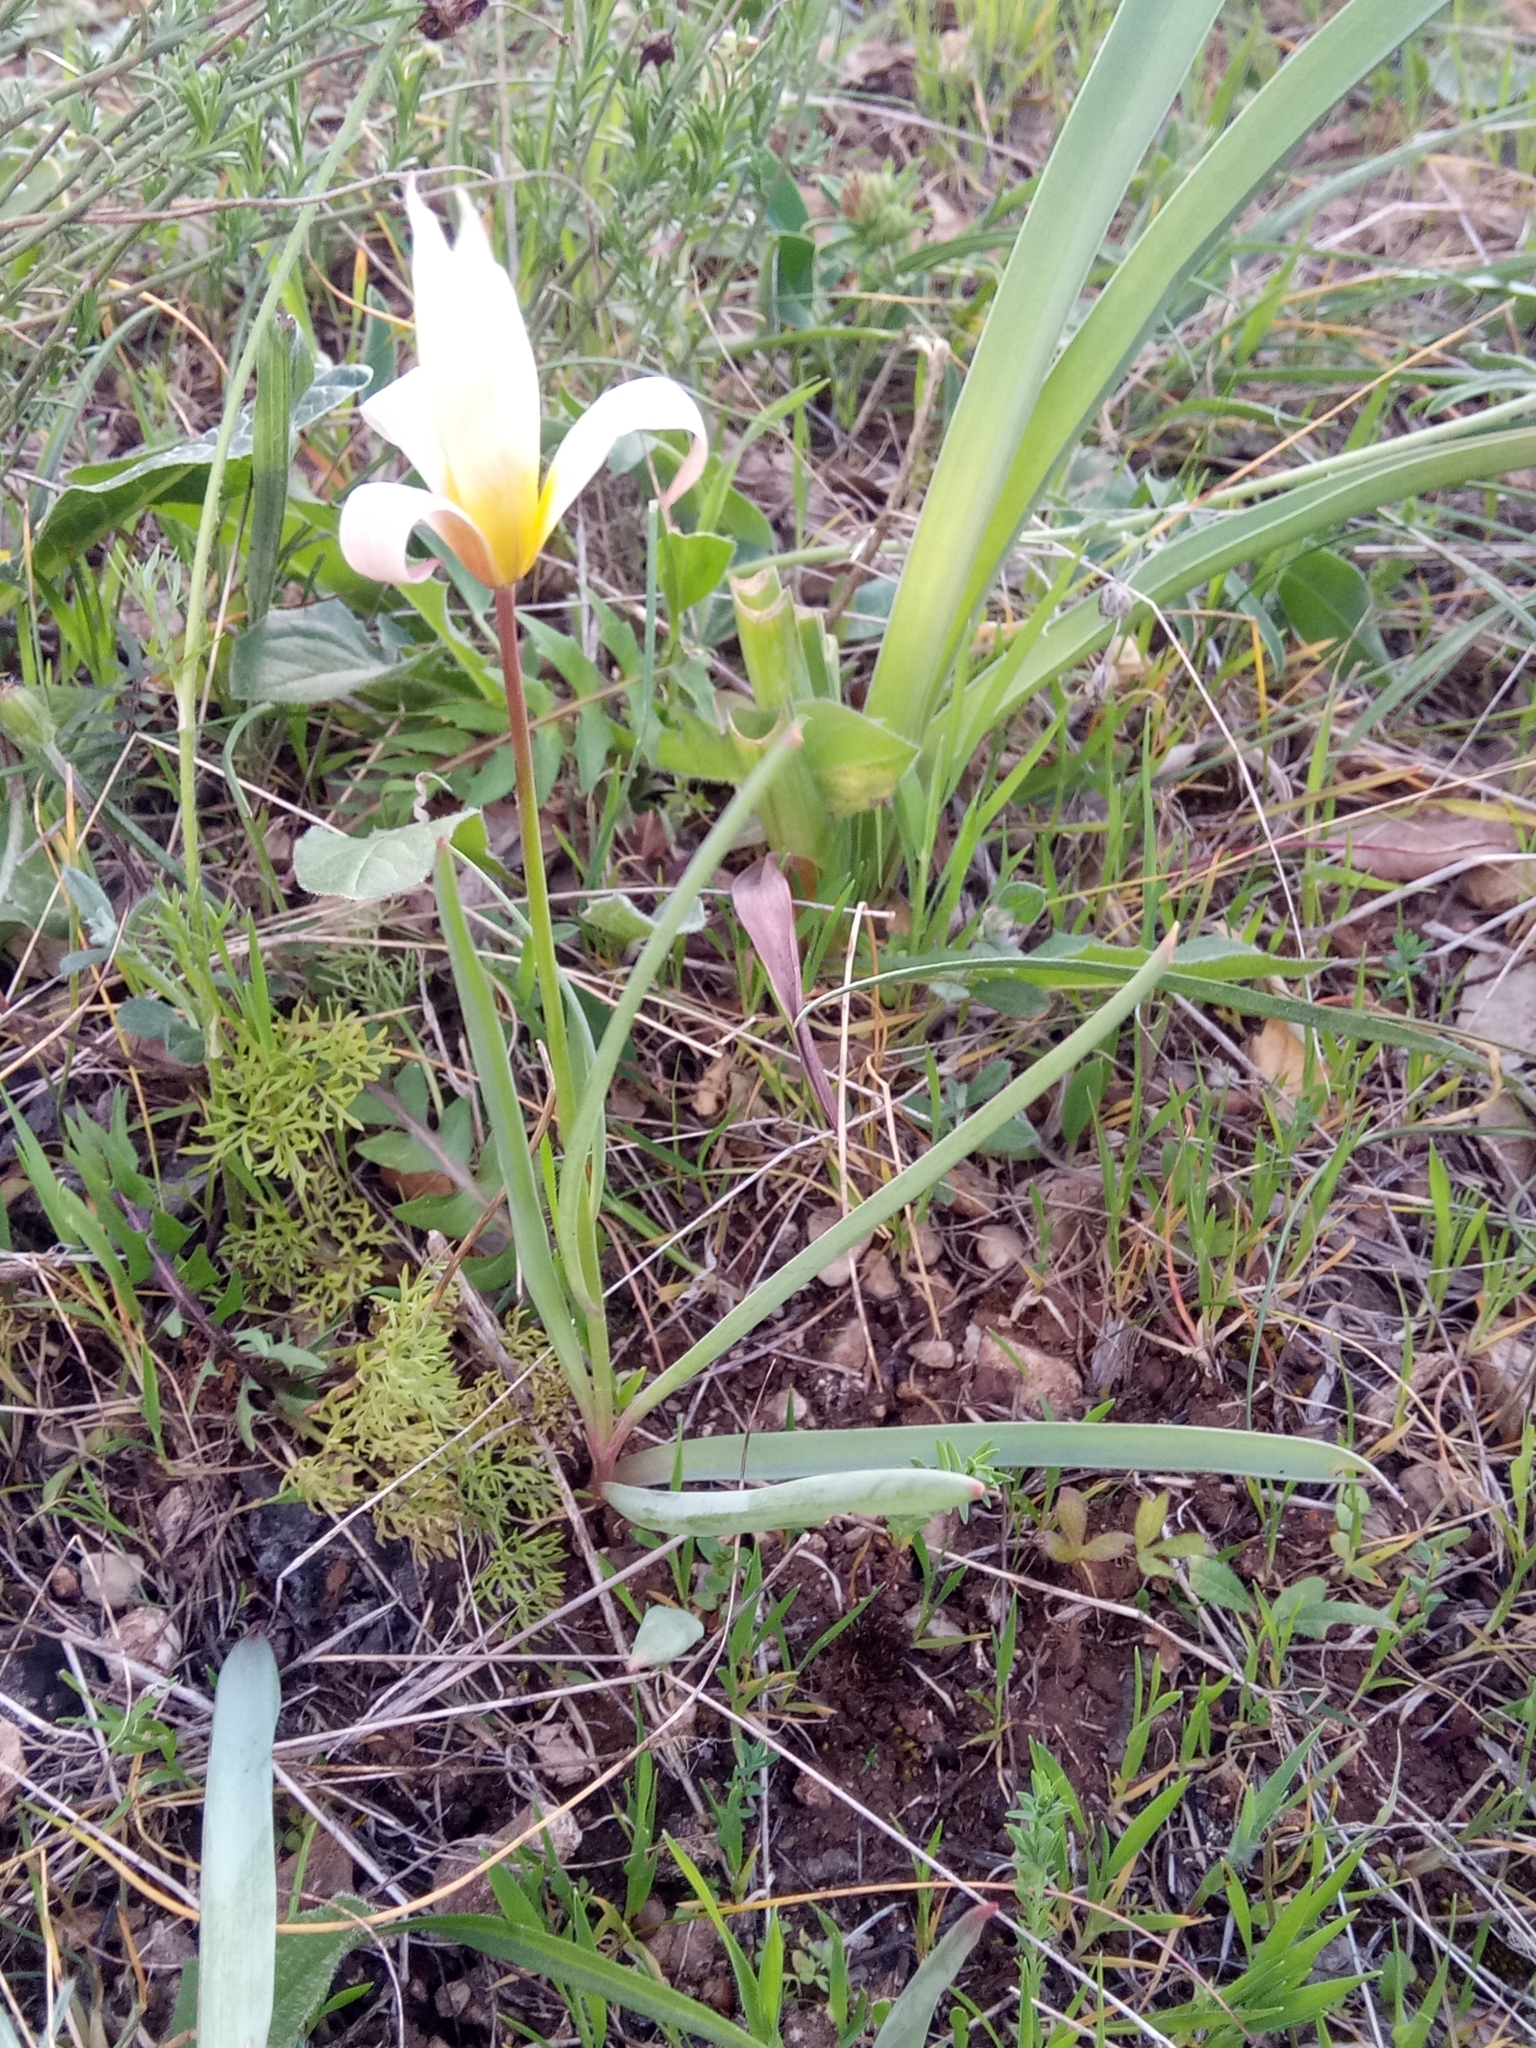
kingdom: Plantae
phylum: Tracheophyta
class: Liliopsida
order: Liliales
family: Liliaceae
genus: Tulipa
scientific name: Tulipa sylvestris
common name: Wild tulip
